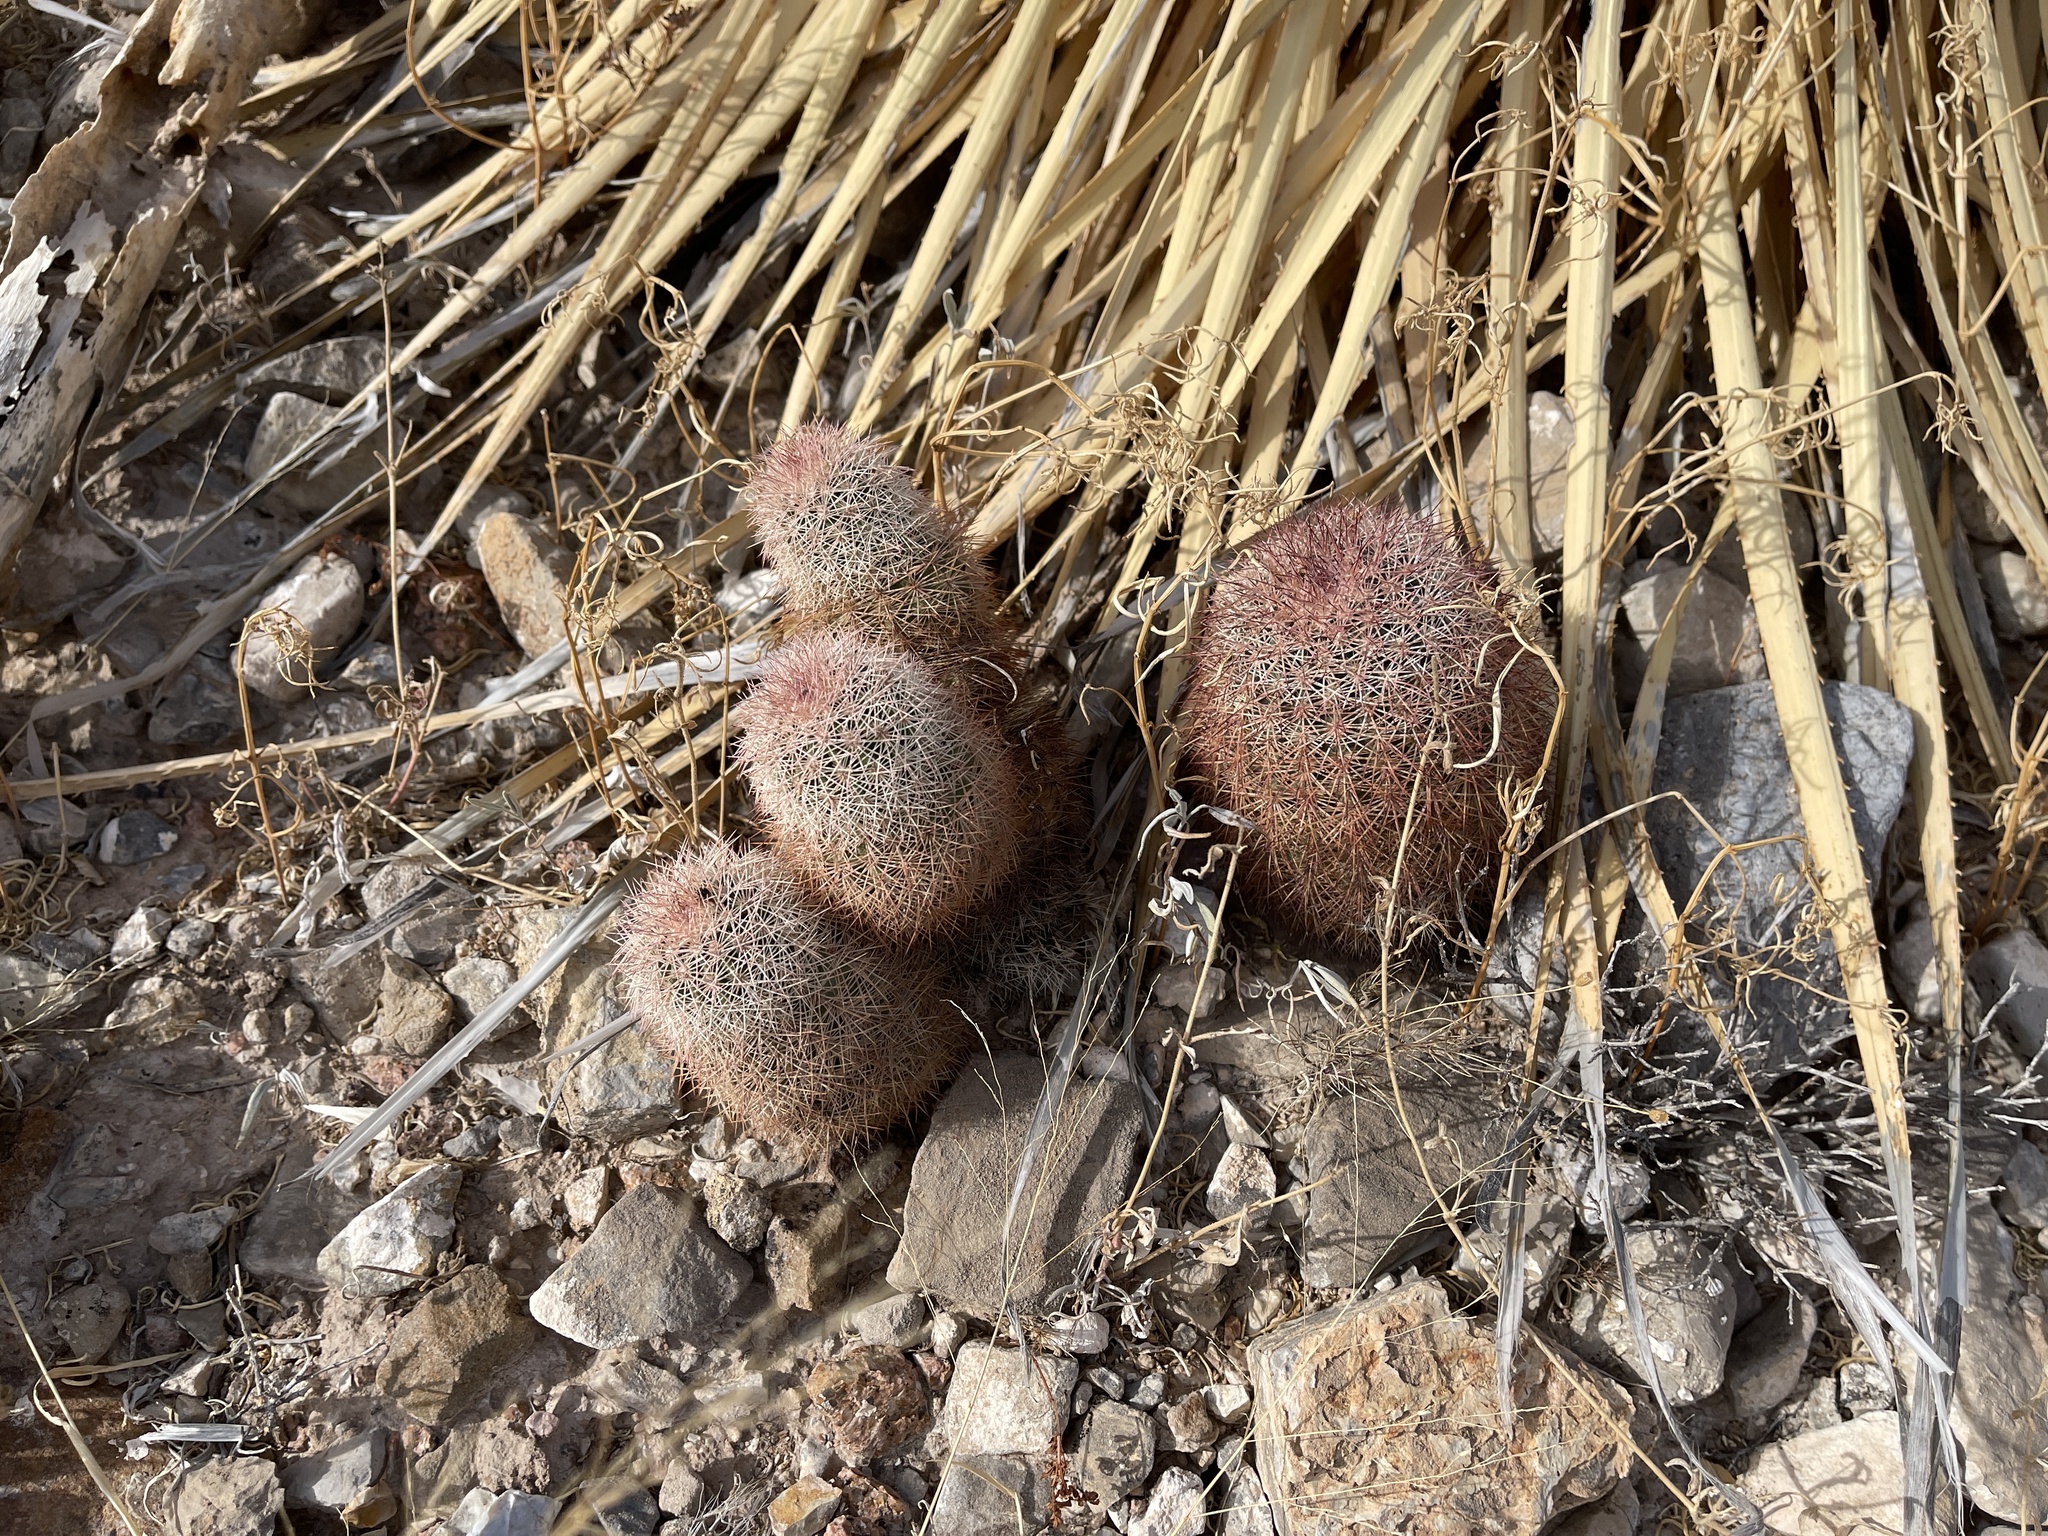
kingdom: Plantae
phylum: Tracheophyta
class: Magnoliopsida
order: Caryophyllales
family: Cactaceae
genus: Echinocereus
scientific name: Echinocereus dasyacanthus
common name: Spiny hedgehog cactus
